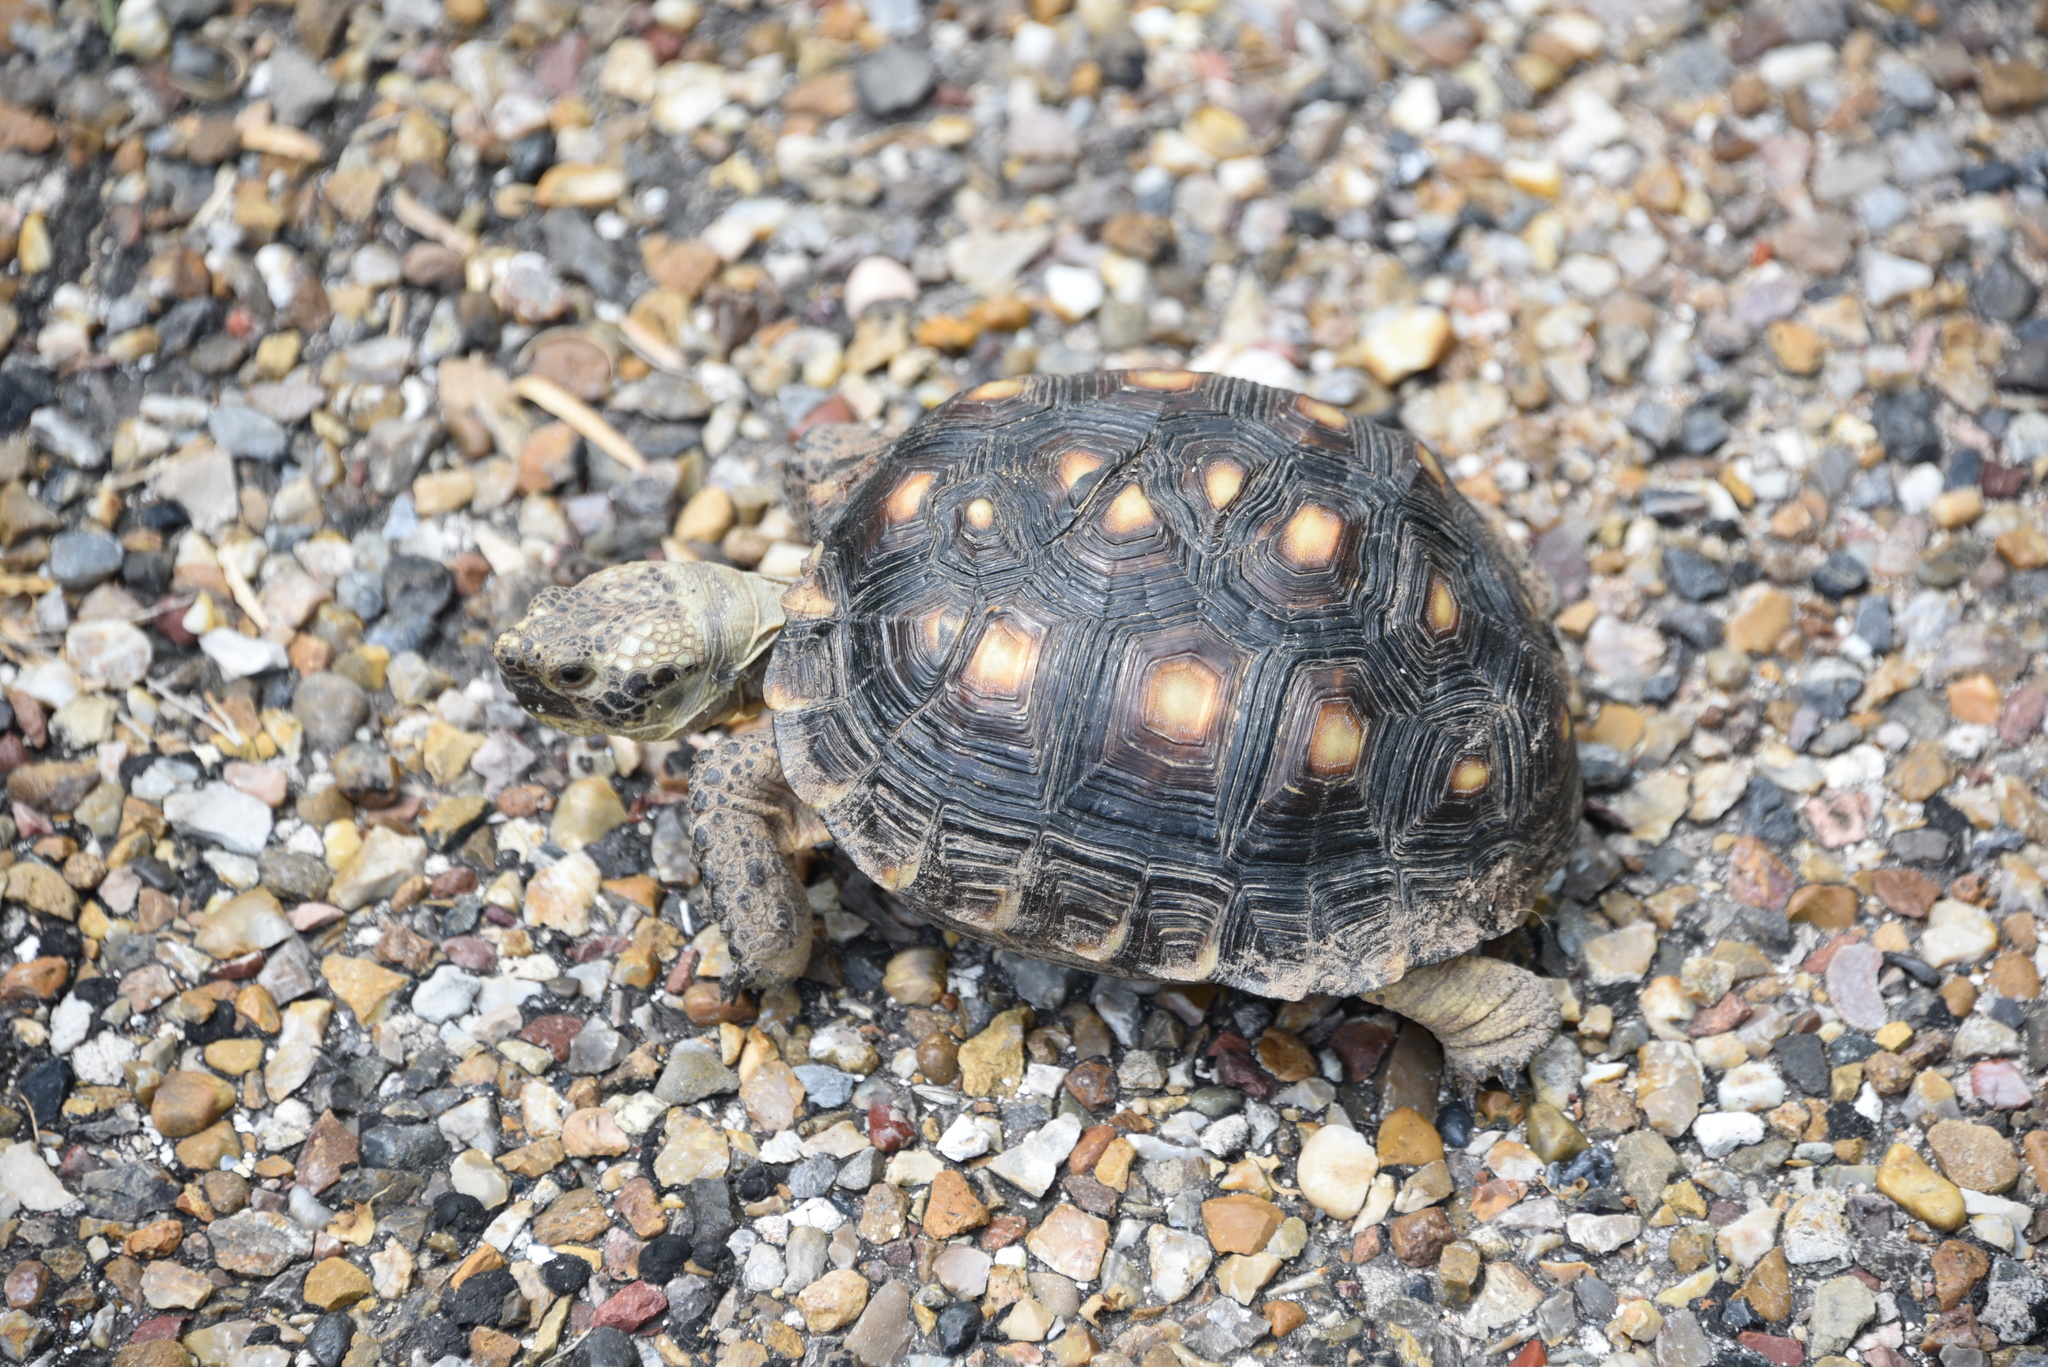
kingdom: Animalia
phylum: Chordata
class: Testudines
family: Testudinidae
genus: Gopherus
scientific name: Gopherus berlandieri
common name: Texas (gopher )tortoise
